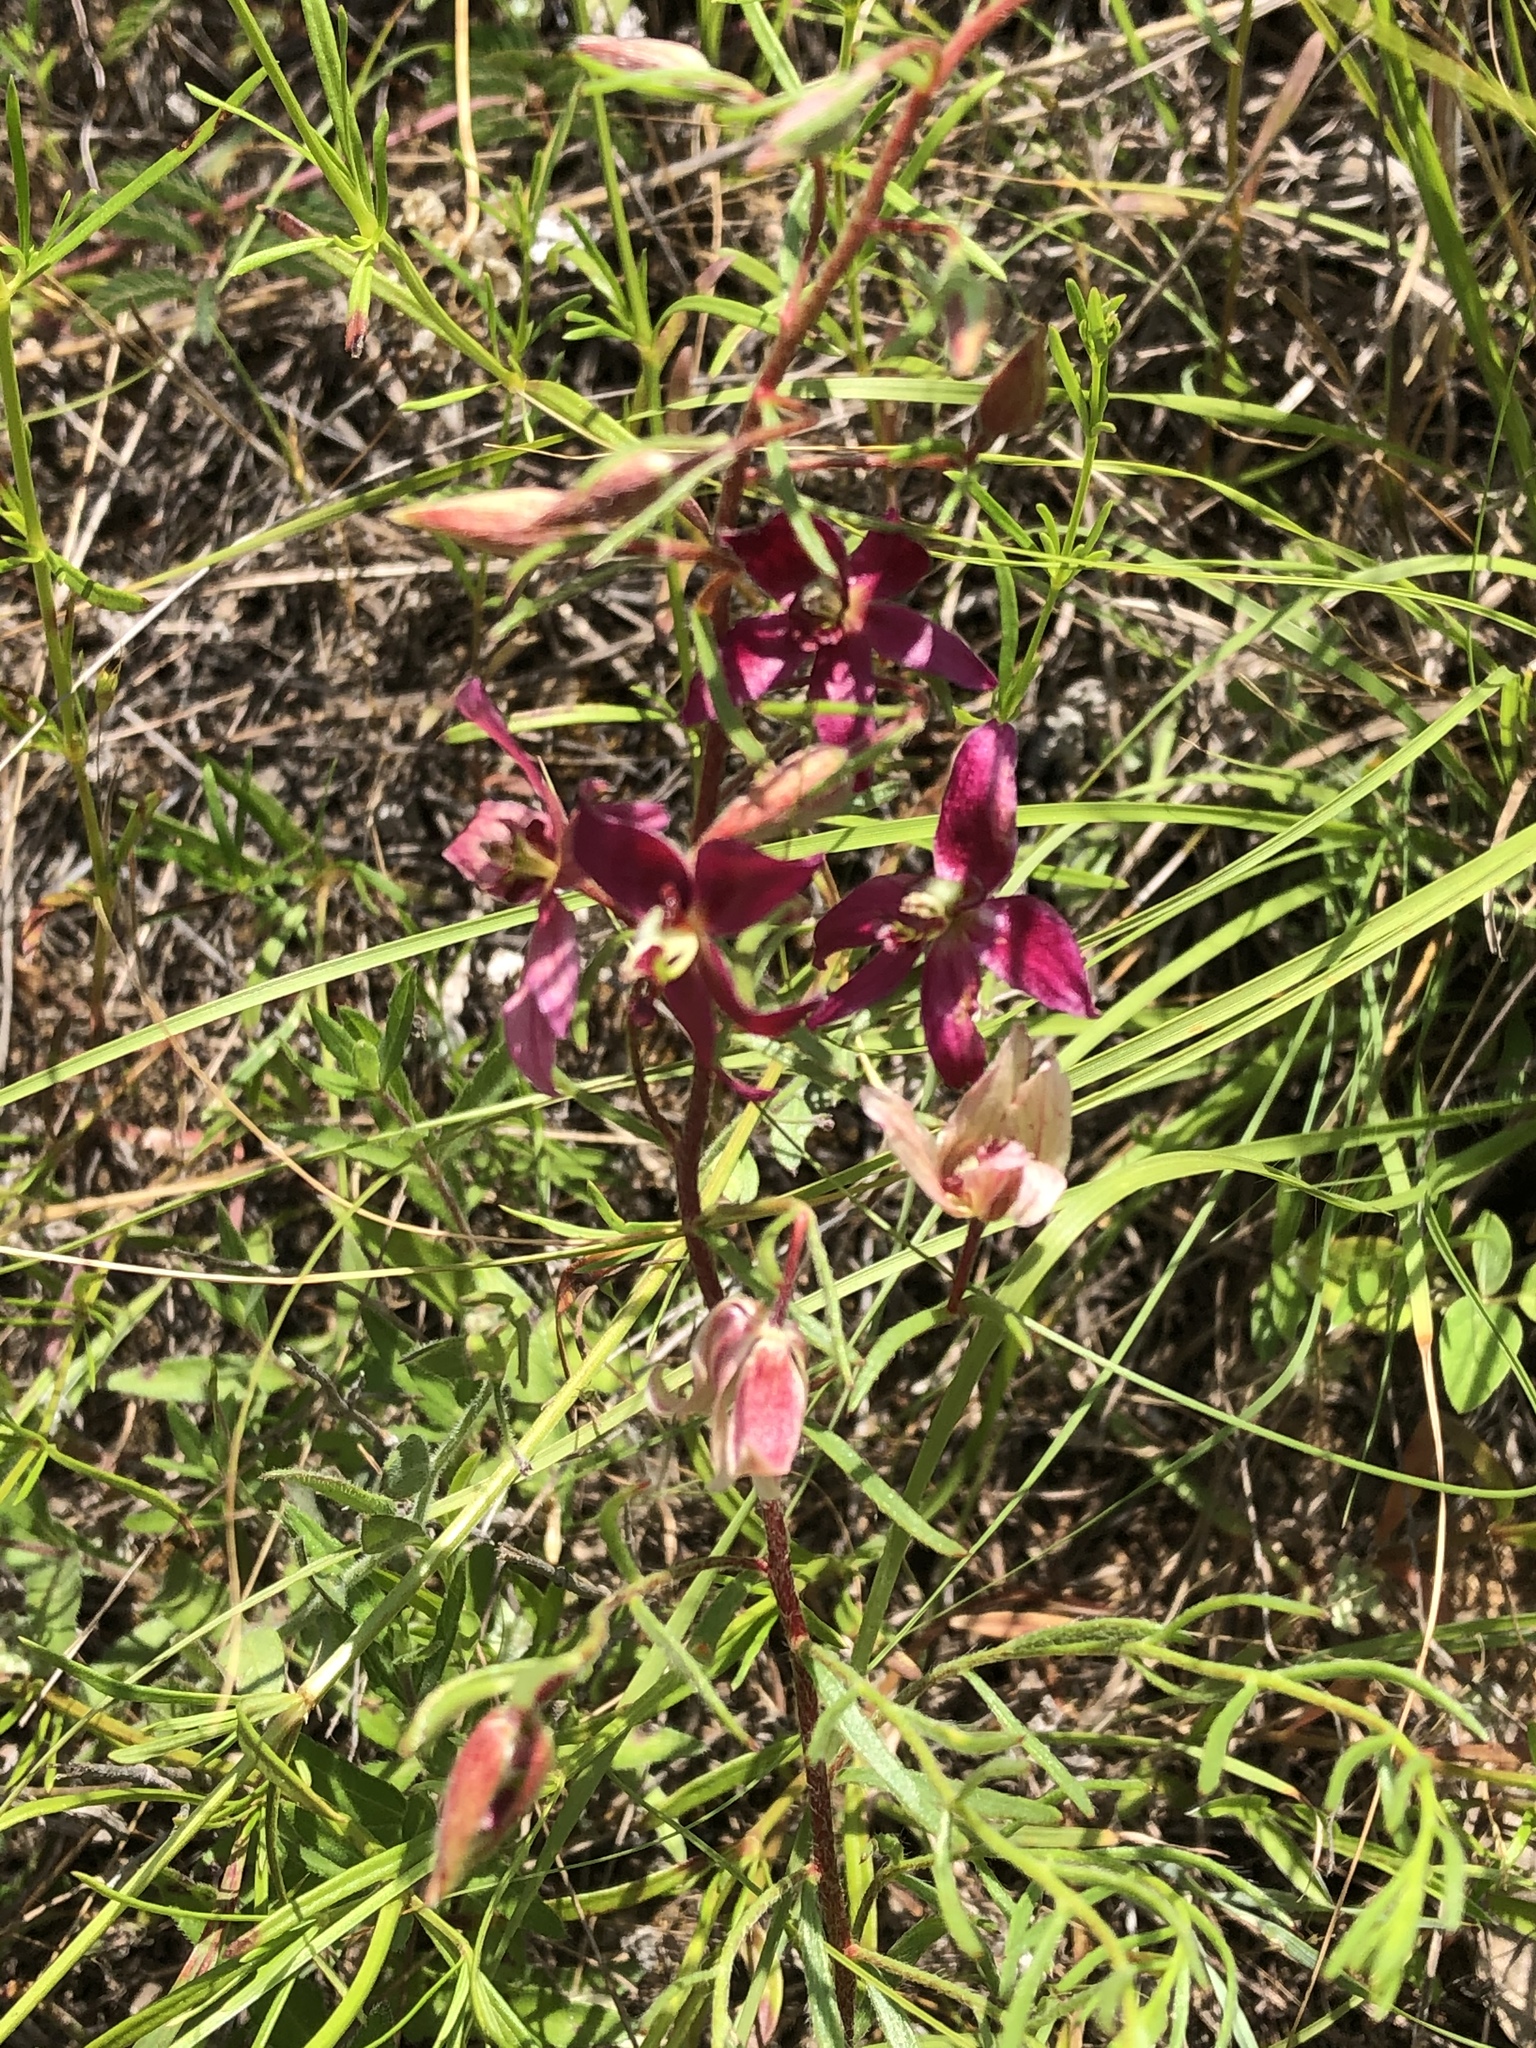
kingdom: Plantae
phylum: Tracheophyta
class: Magnoliopsida
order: Zygophyllales
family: Krameriaceae
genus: Krameria
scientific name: Krameria lanceolata
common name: Ratany
